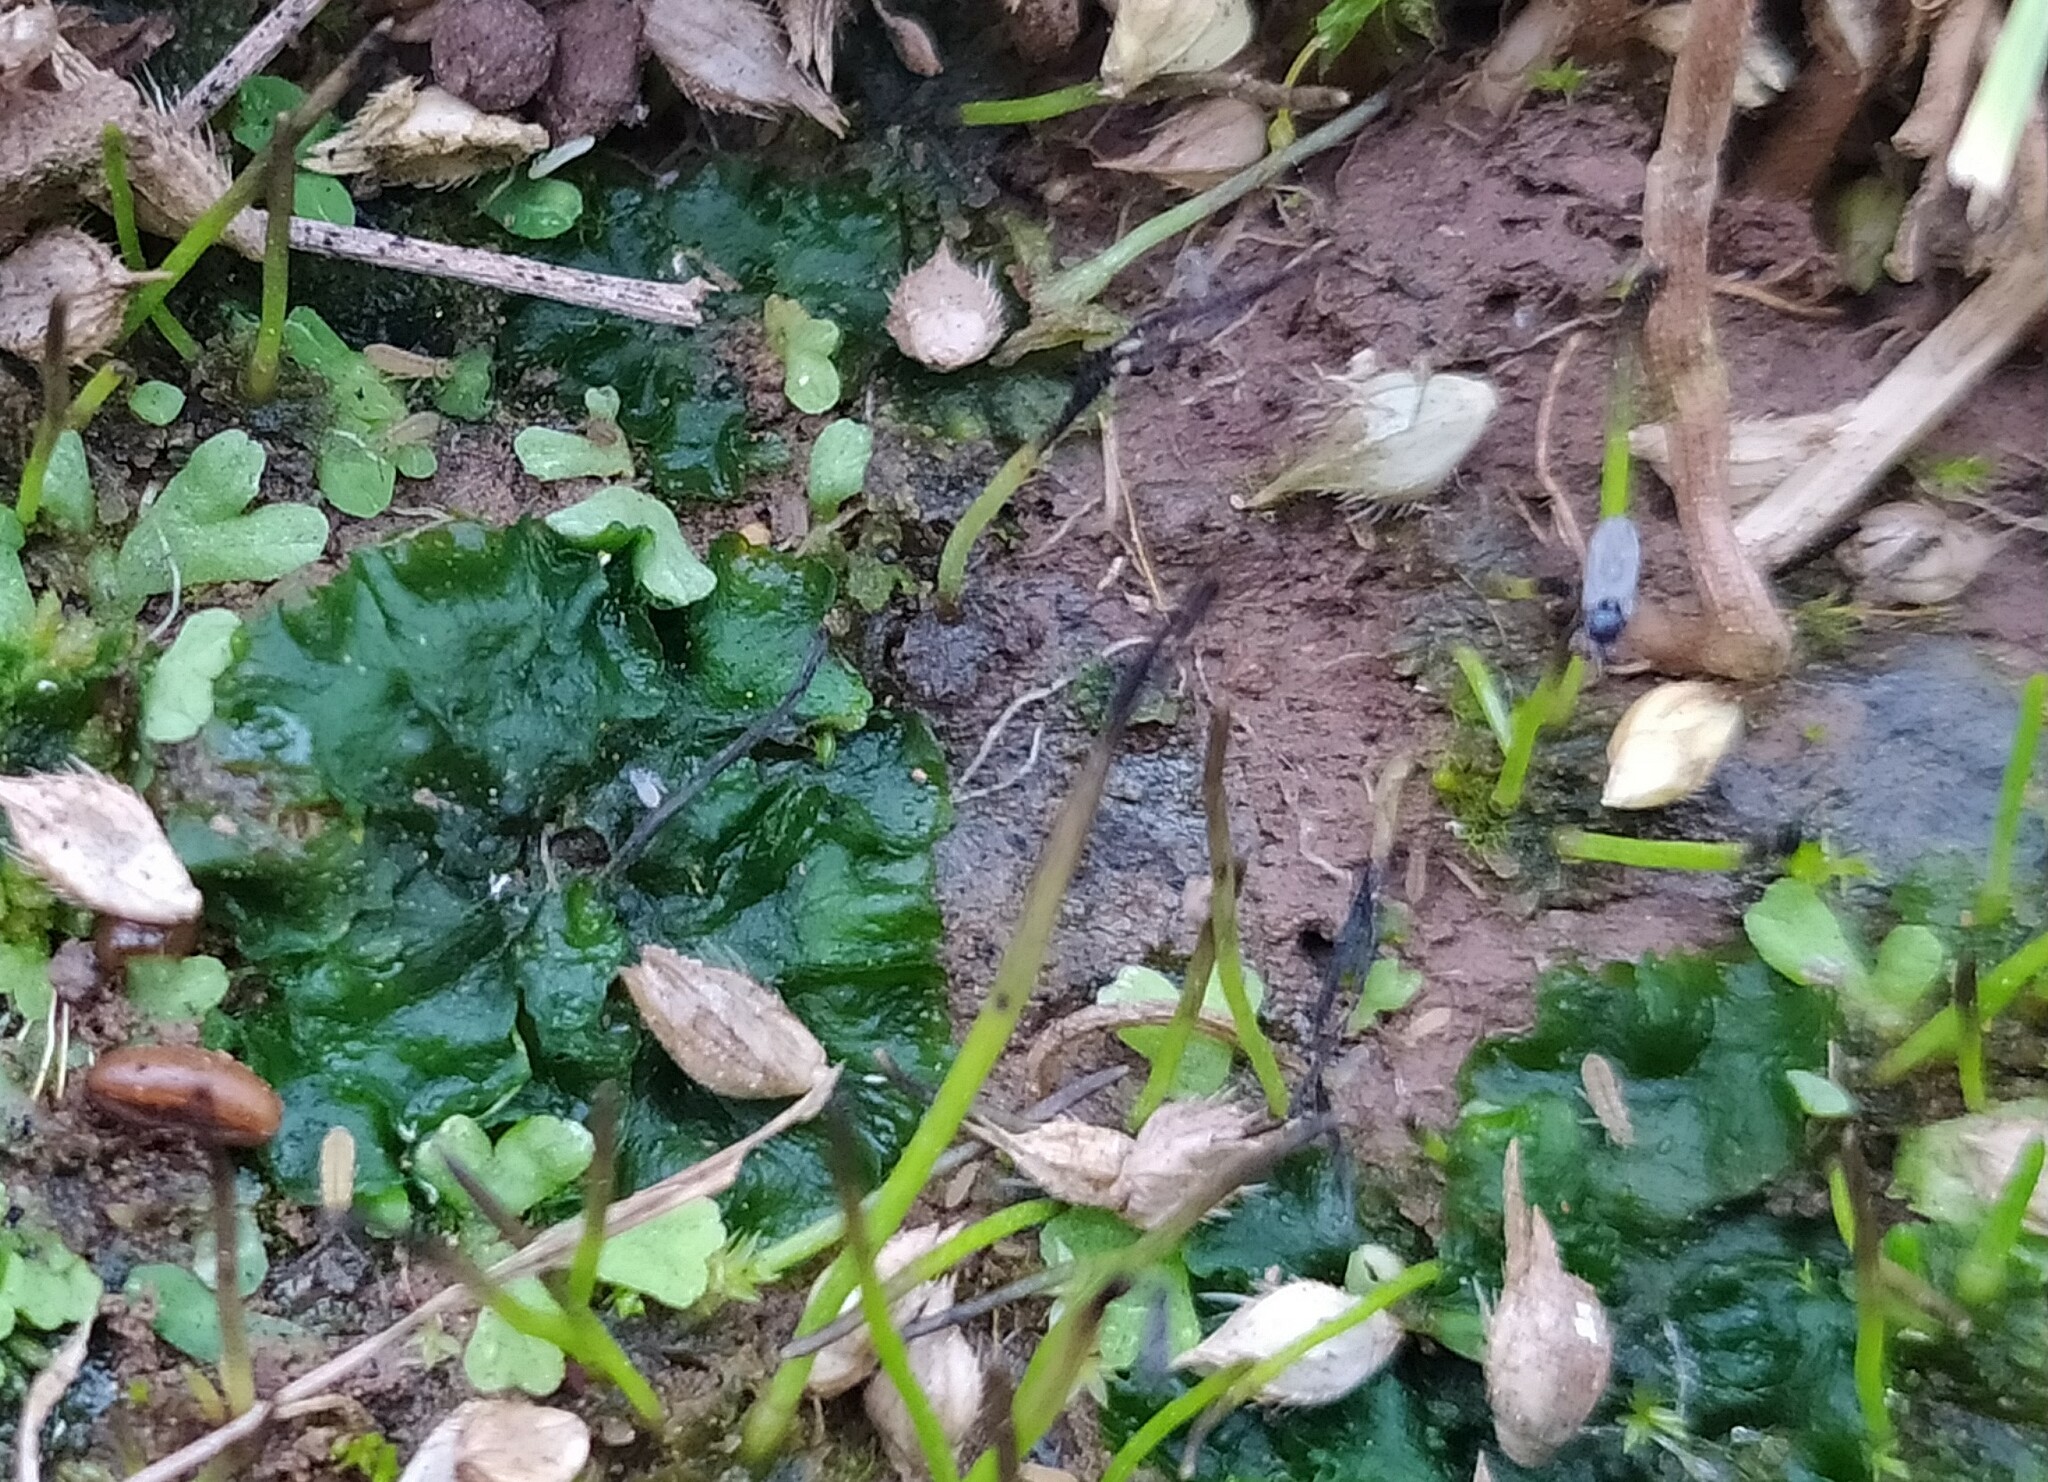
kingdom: Plantae
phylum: Anthocerotophyta
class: Anthocerotopsida
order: Notothyladales
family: Notothyladaceae
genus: Phaeoceros
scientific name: Phaeoceros carolinianus
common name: Carolina hornwort
